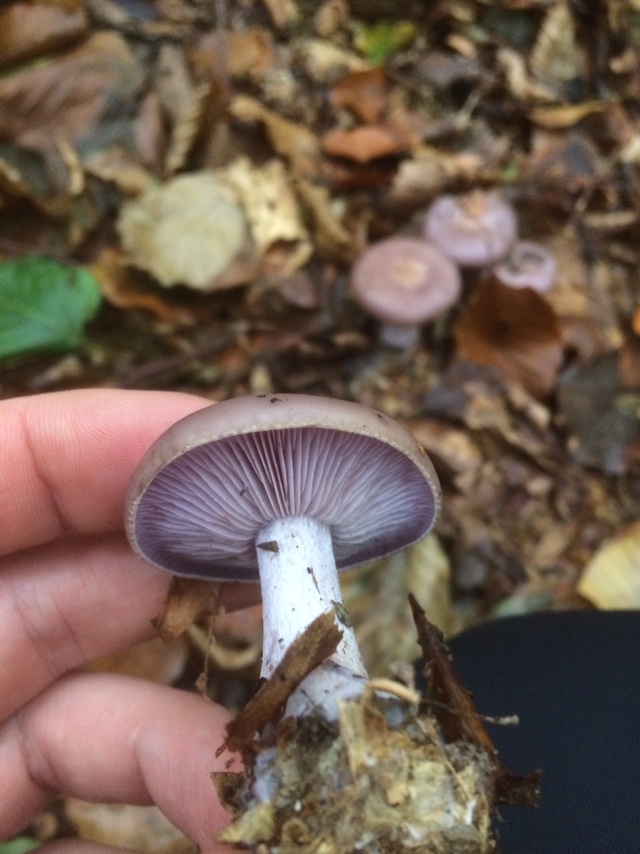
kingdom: Fungi
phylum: Basidiomycota
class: Agaricomycetes
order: Agaricales
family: Tricholomataceae
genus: Collybia
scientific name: Collybia
